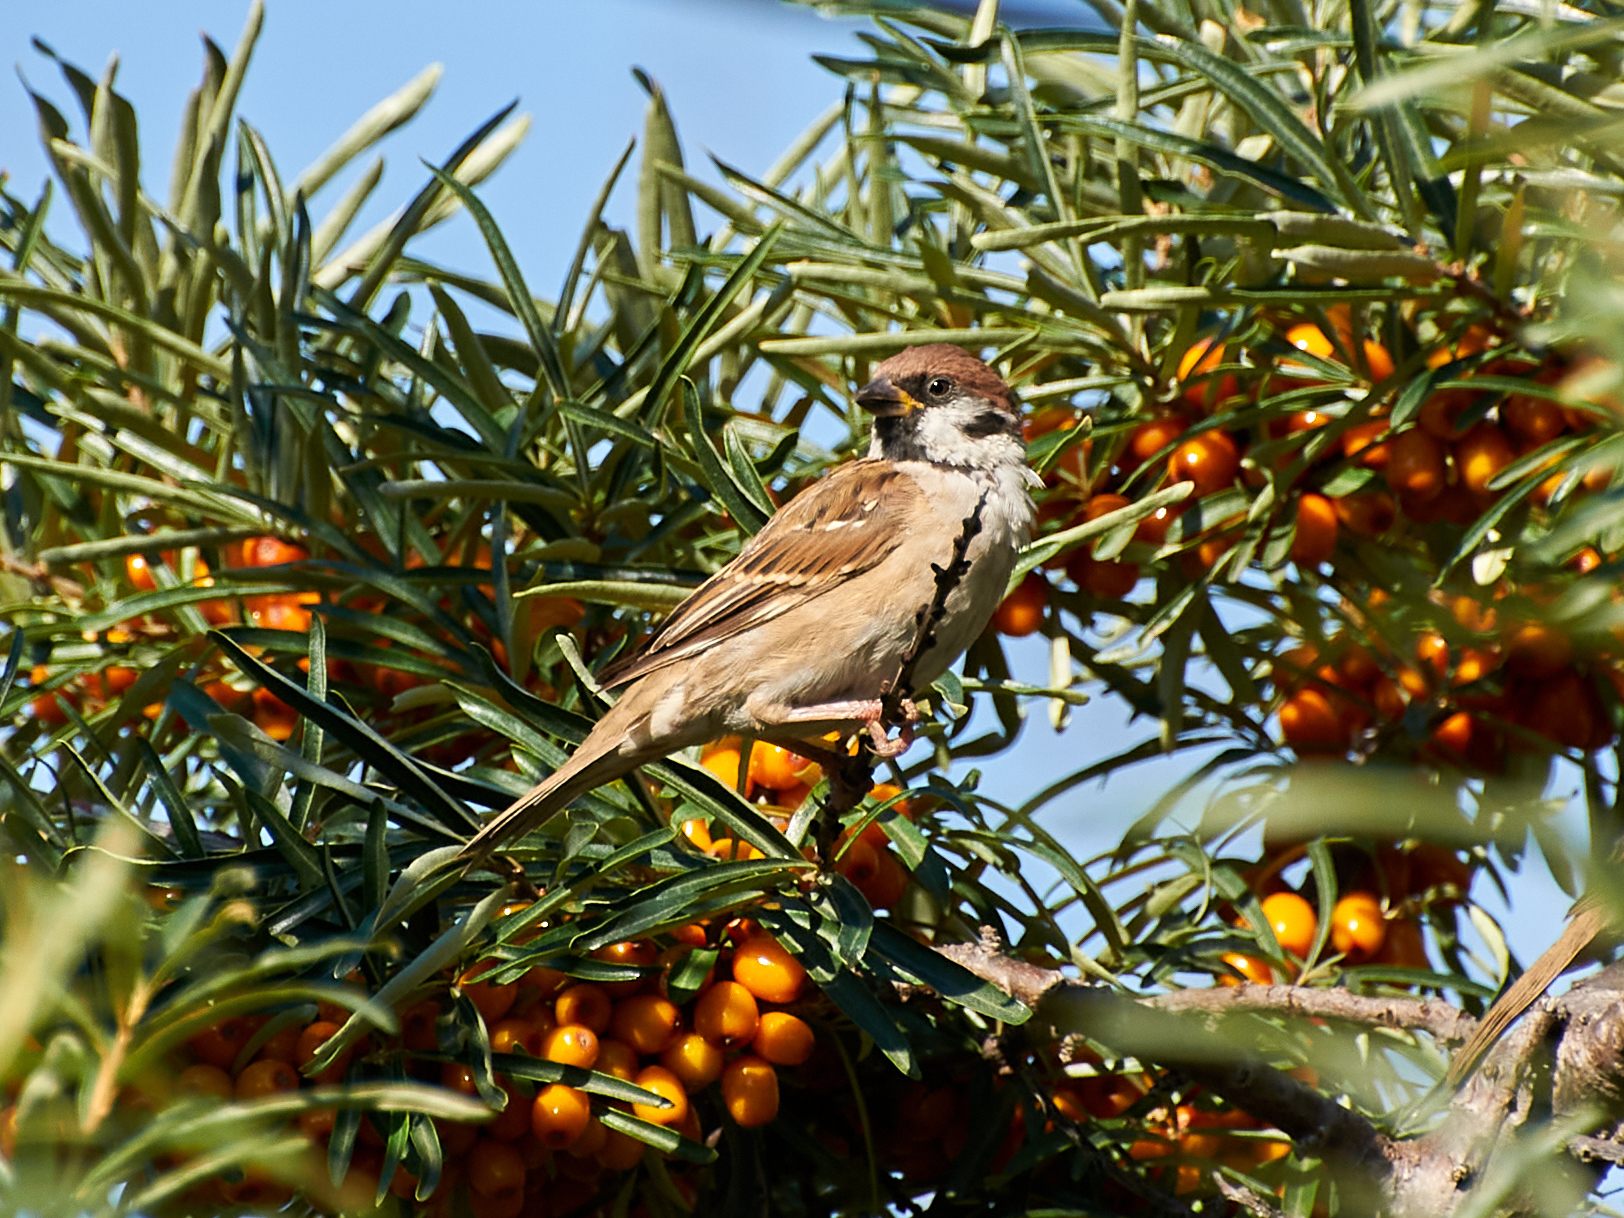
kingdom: Animalia
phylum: Chordata
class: Aves
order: Passeriformes
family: Passeridae
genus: Passer
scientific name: Passer montanus
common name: Eurasian tree sparrow
